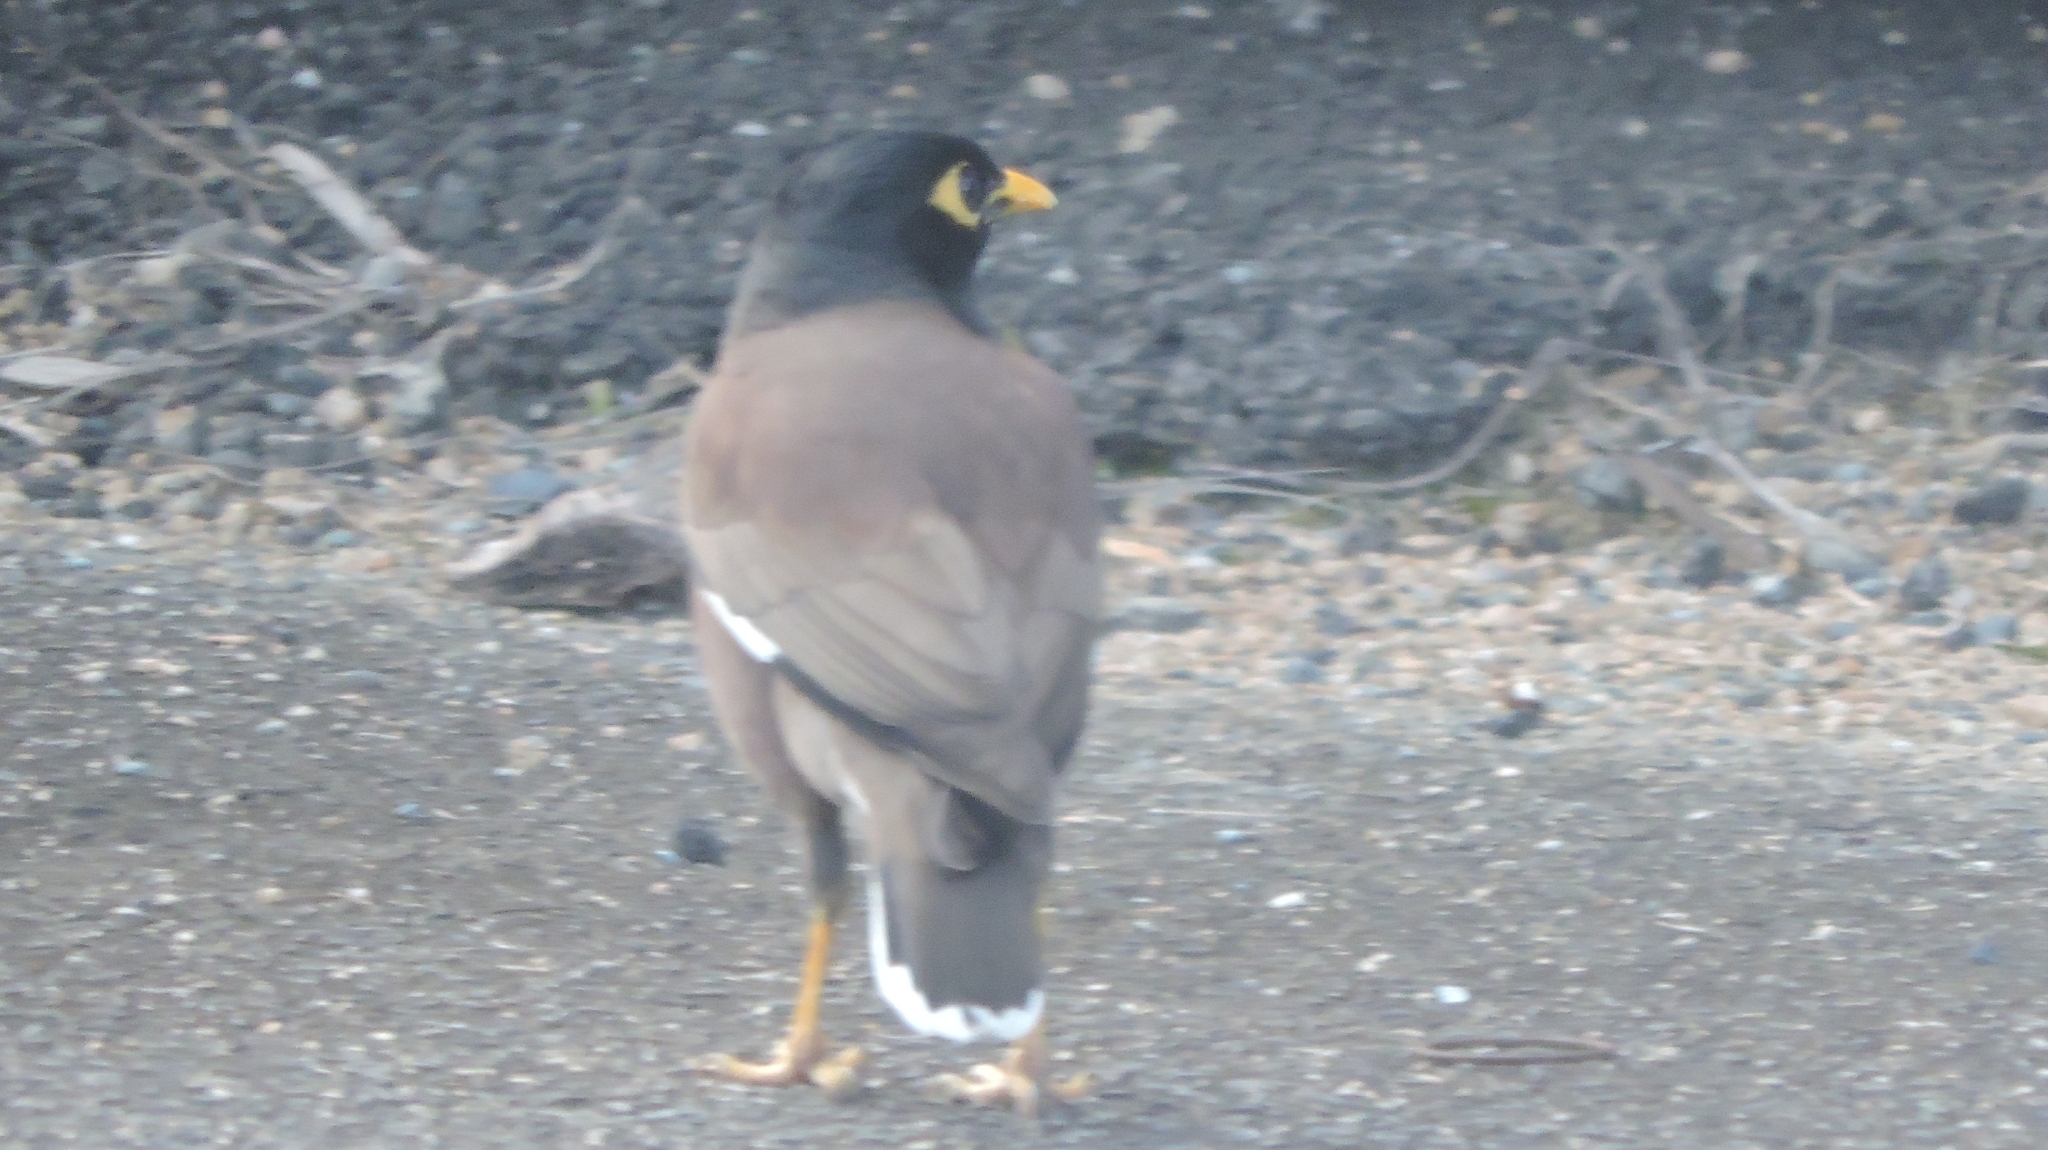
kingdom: Animalia
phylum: Chordata
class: Aves
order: Passeriformes
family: Sturnidae
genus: Acridotheres
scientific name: Acridotheres tristis
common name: Common myna
